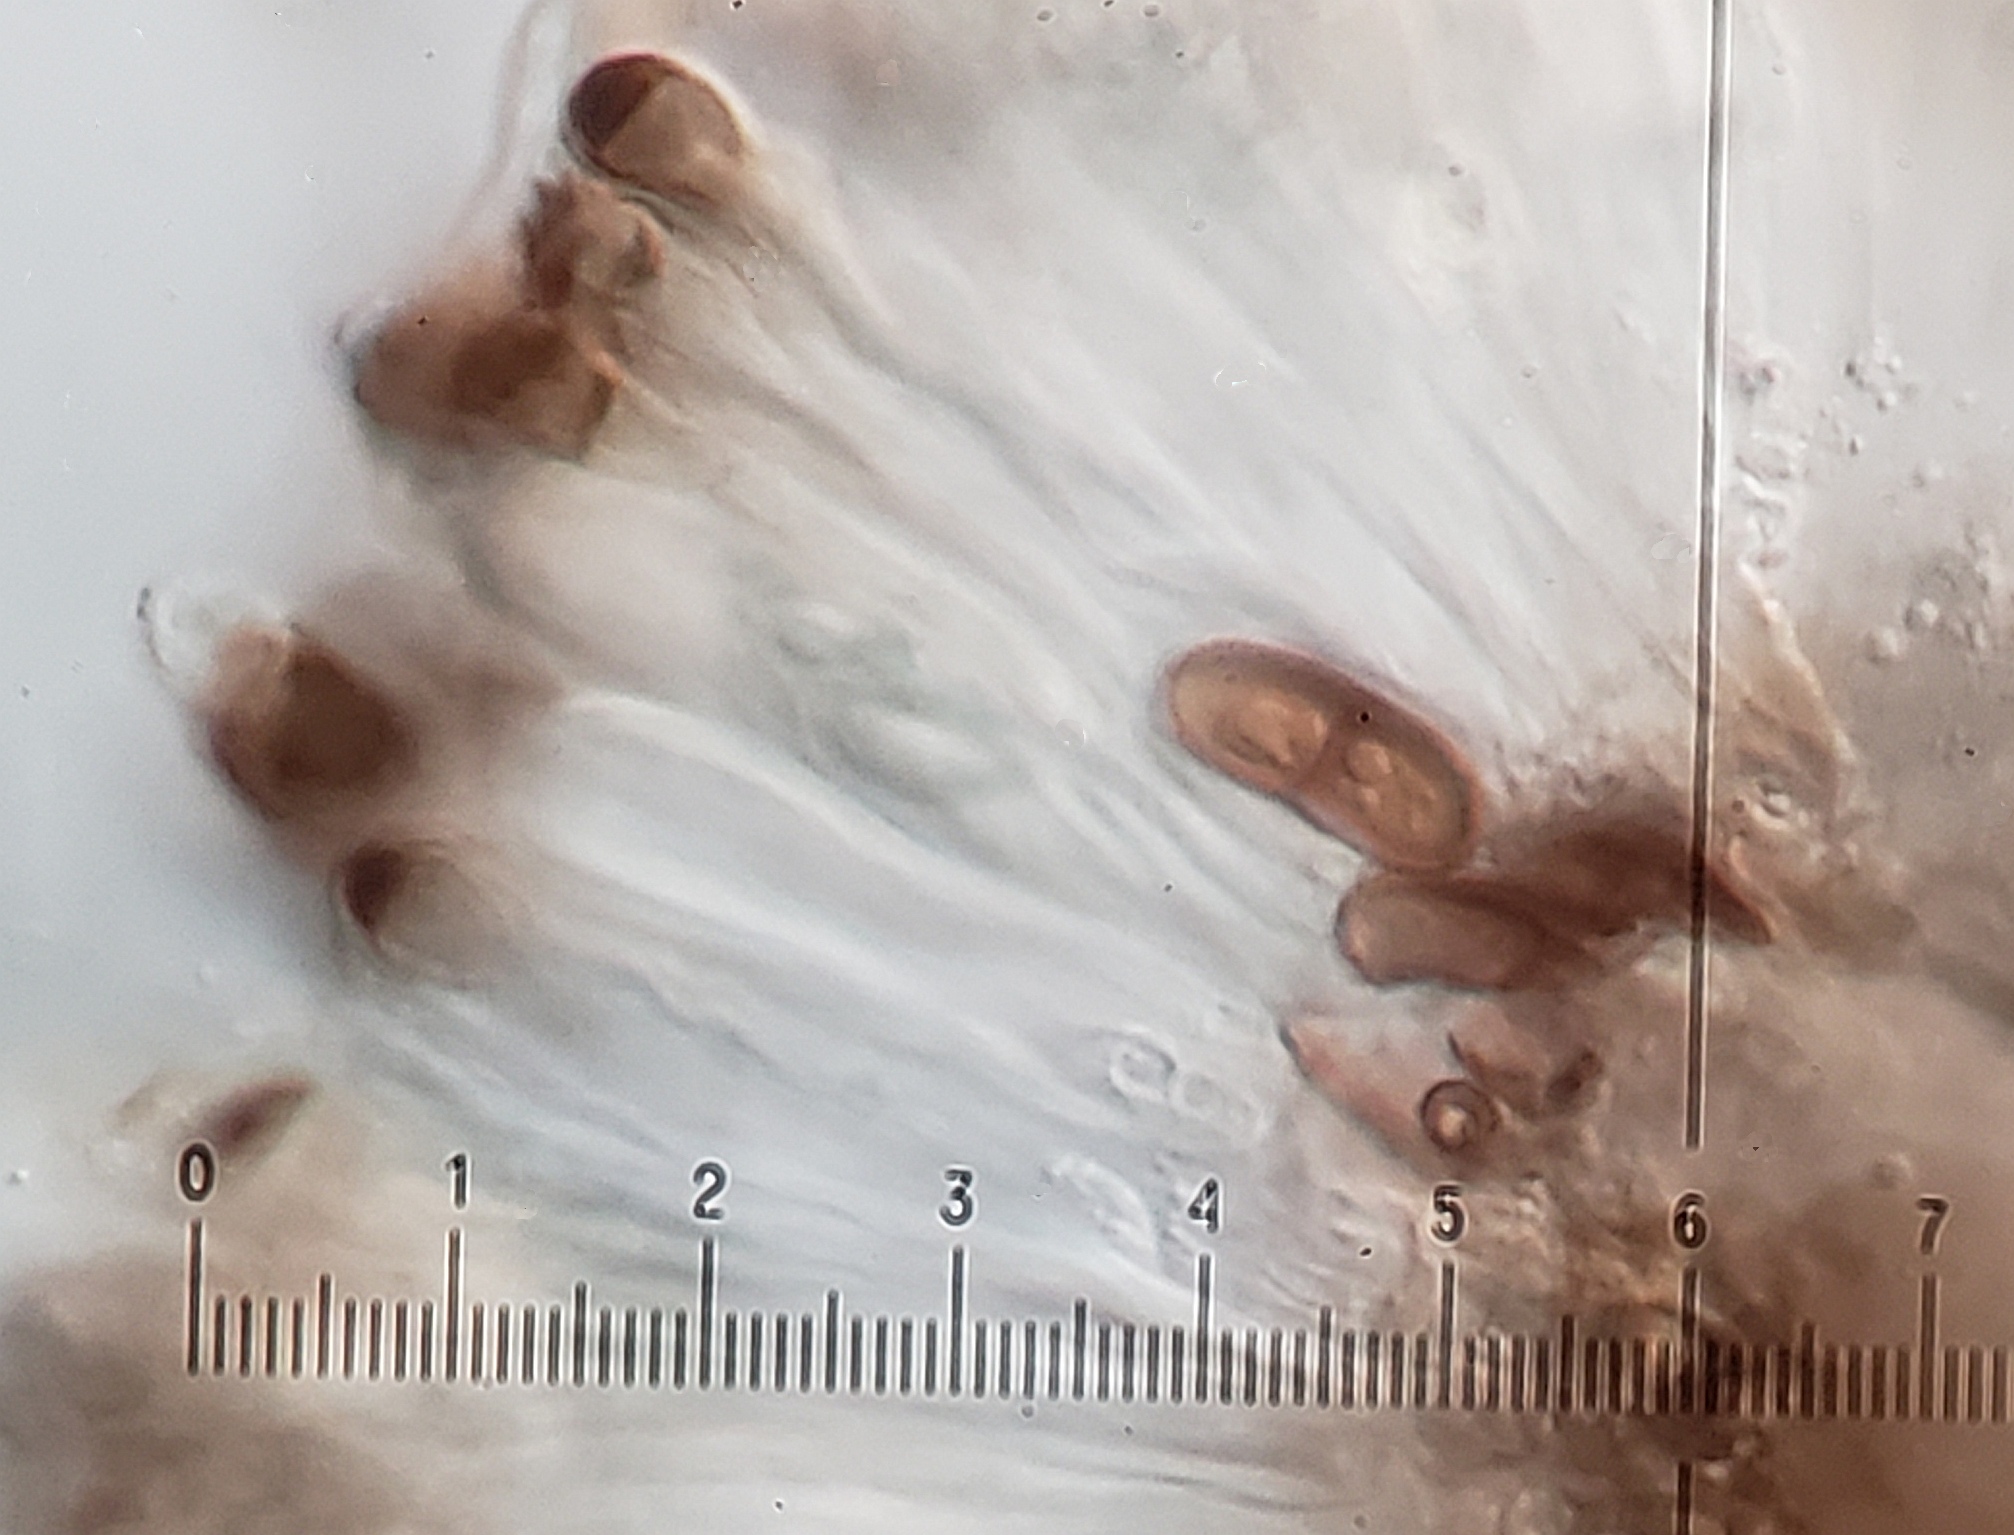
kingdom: Fungi
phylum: Ascomycota
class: Lecanoromycetes
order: Caliciales
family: Caliciaceae
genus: Amandinea
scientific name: Amandinea punctata
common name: Tiny button lichen
